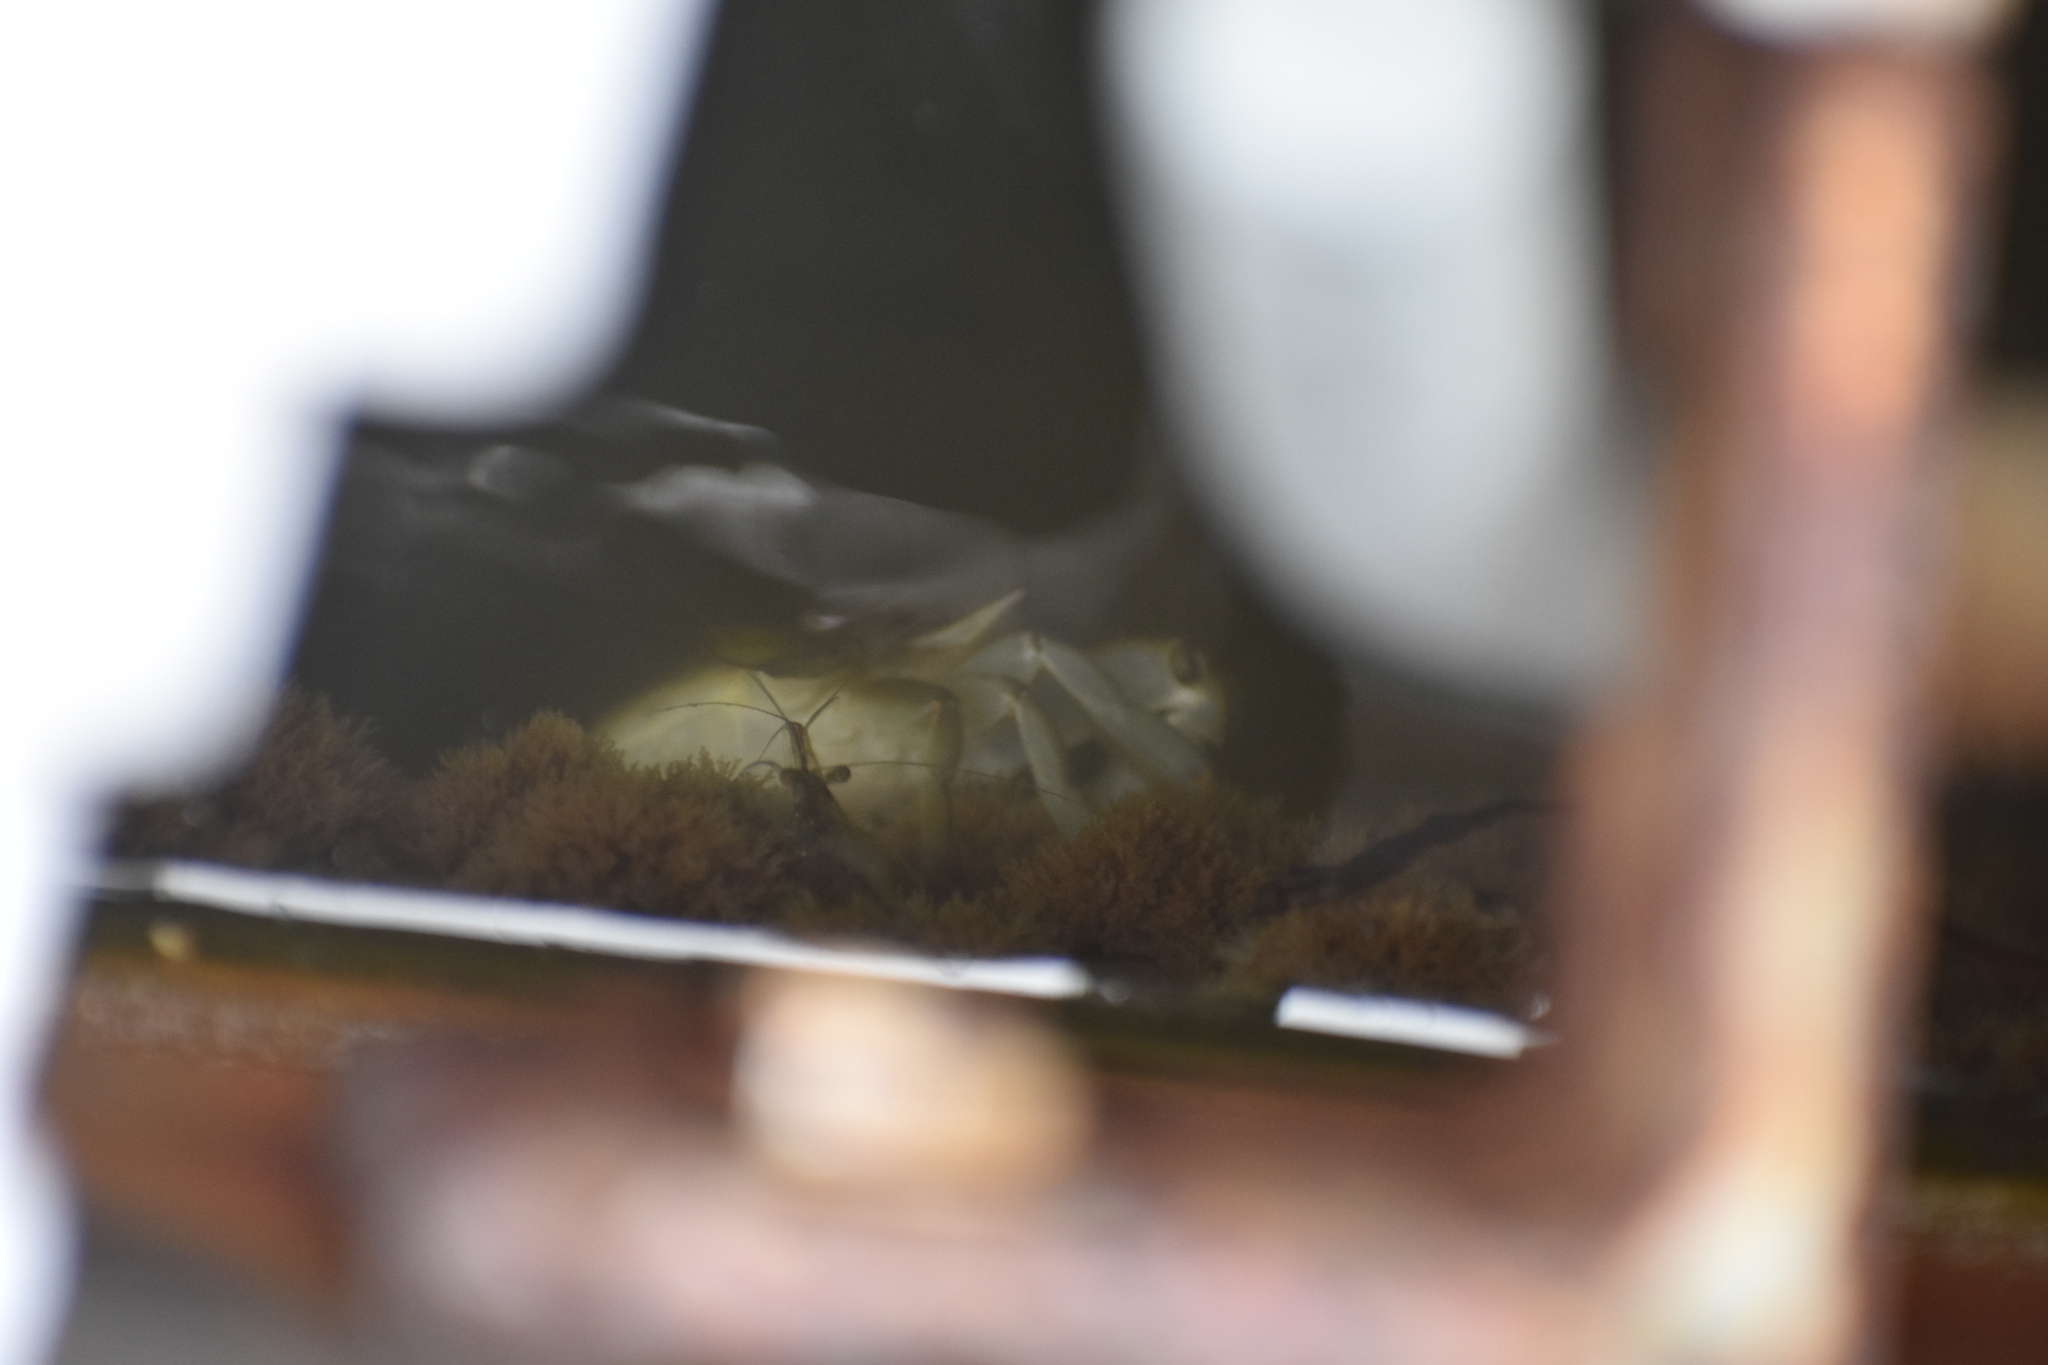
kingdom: Animalia
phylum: Arthropoda
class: Malacostraca
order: Decapoda
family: Palaemonidae
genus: Palaemon
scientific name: Palaemon paludosus
